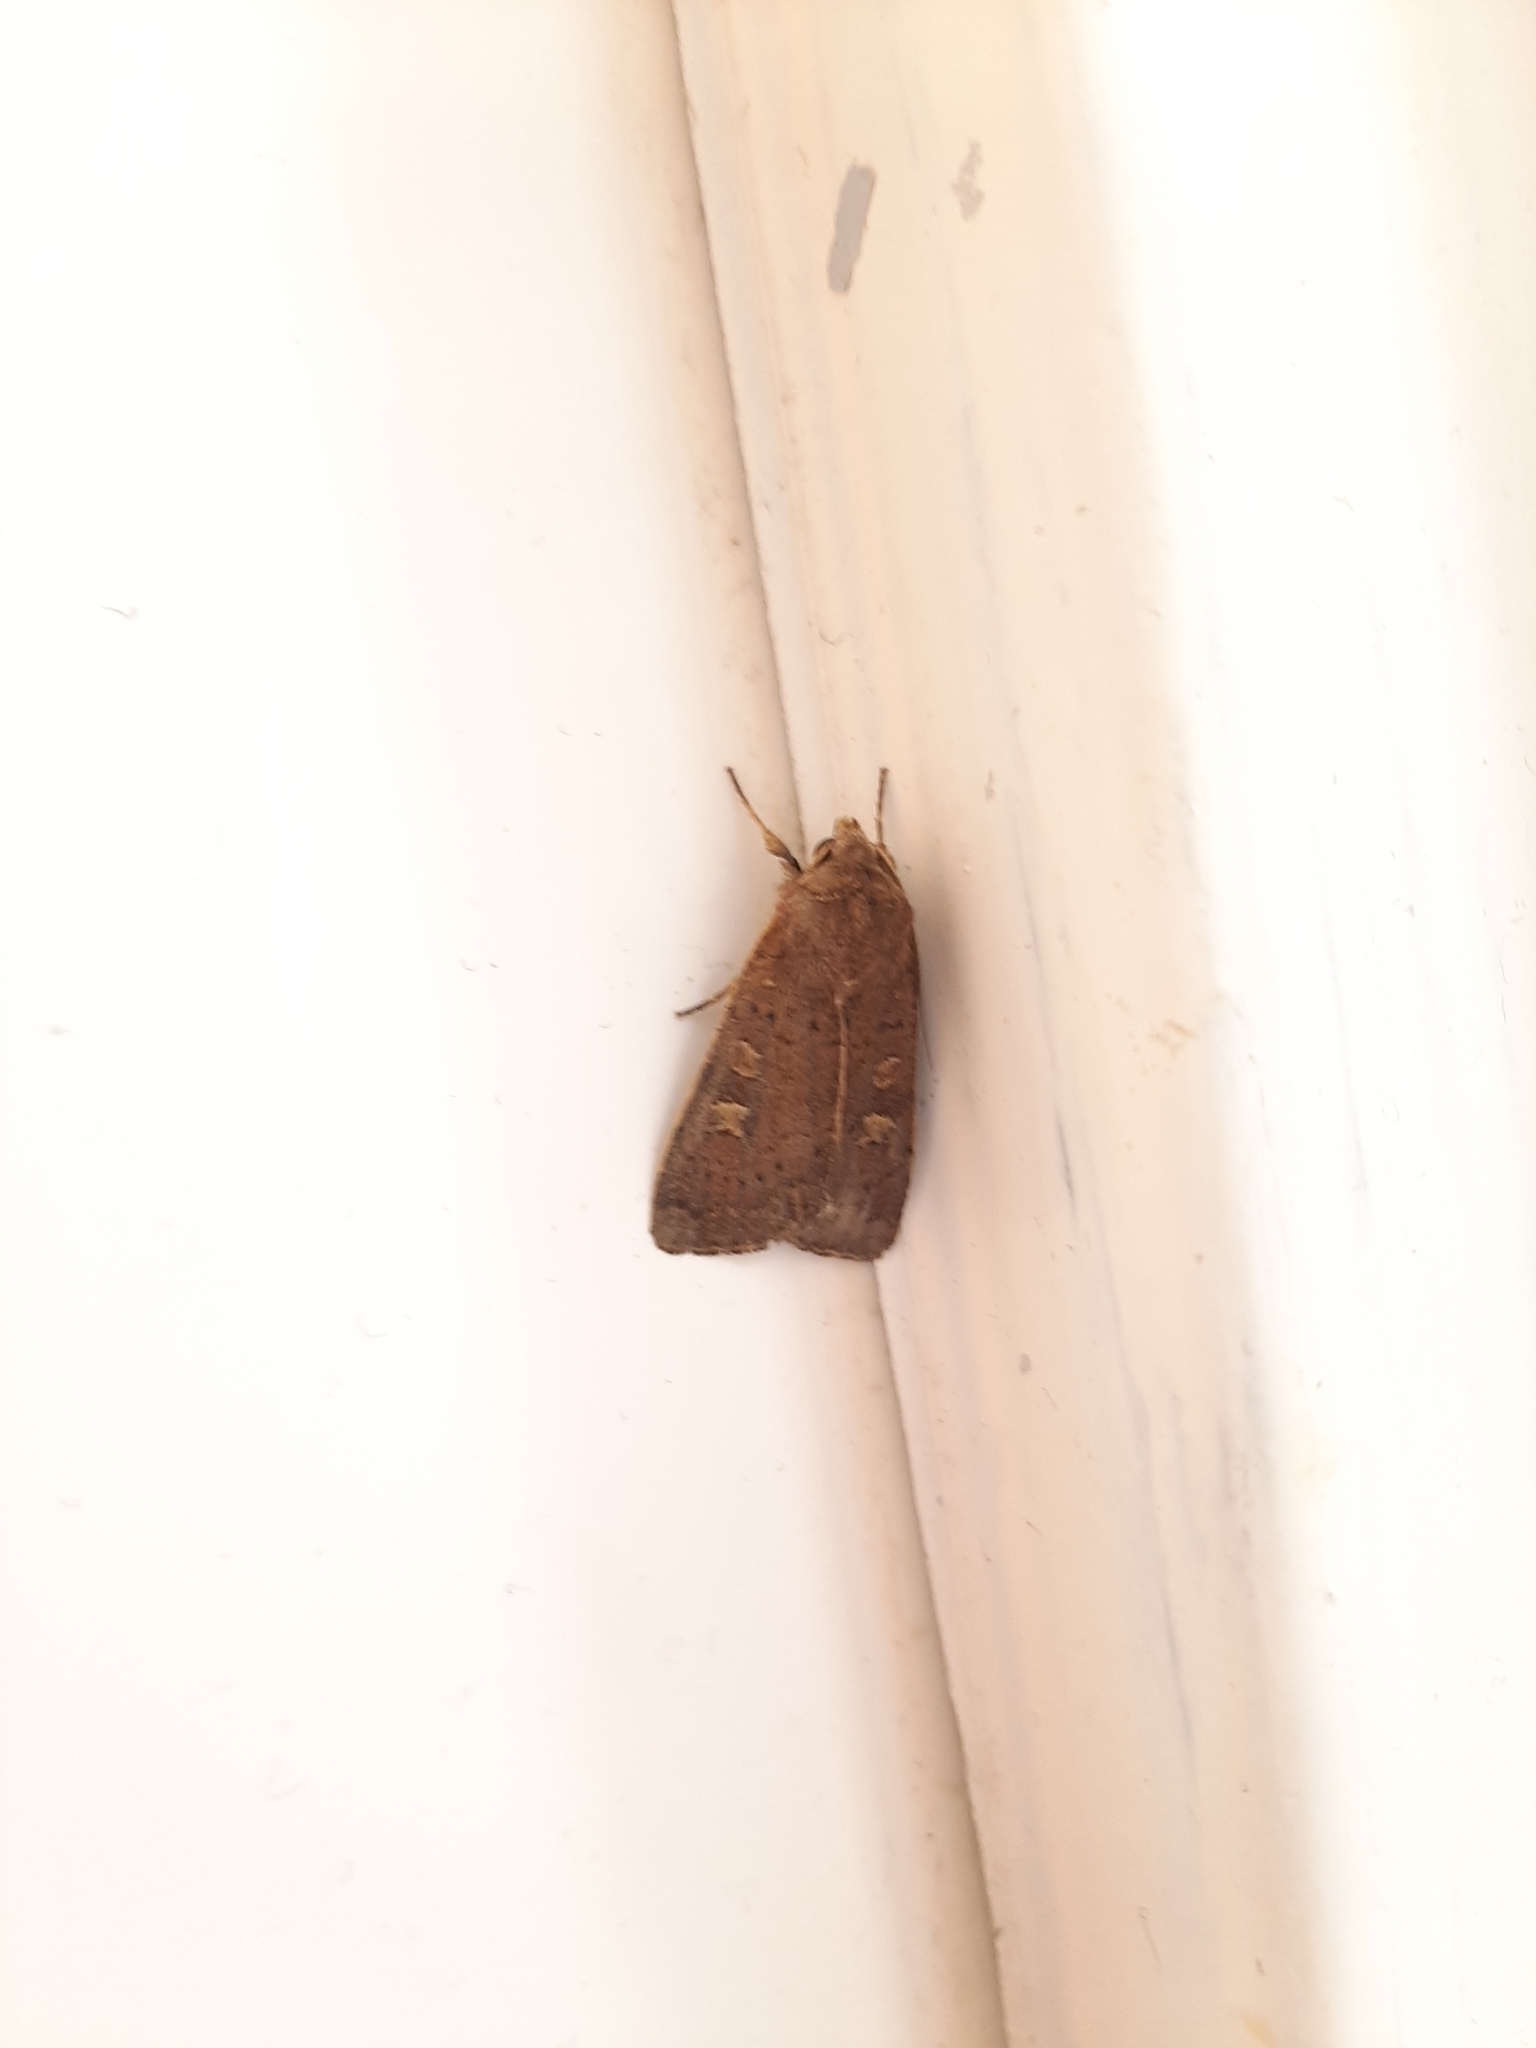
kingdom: Animalia
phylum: Arthropoda
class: Insecta
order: Lepidoptera
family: Noctuidae
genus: Xestia
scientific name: Xestia xanthographa
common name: Square-spot rustic
